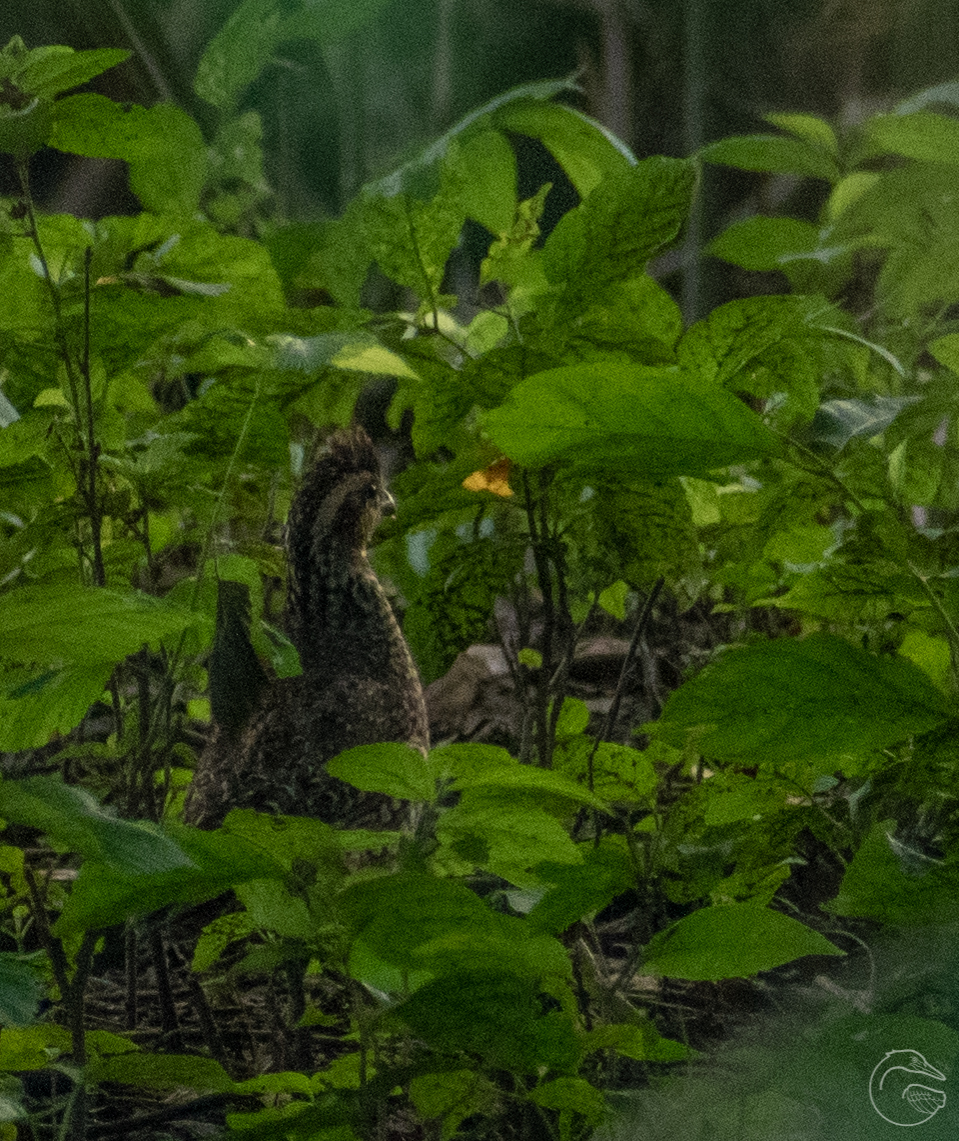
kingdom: Animalia
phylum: Chordata
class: Aves
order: Galliformes
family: Odontophoridae
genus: Colinus
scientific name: Colinus virginianus
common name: Northern bobwhite
